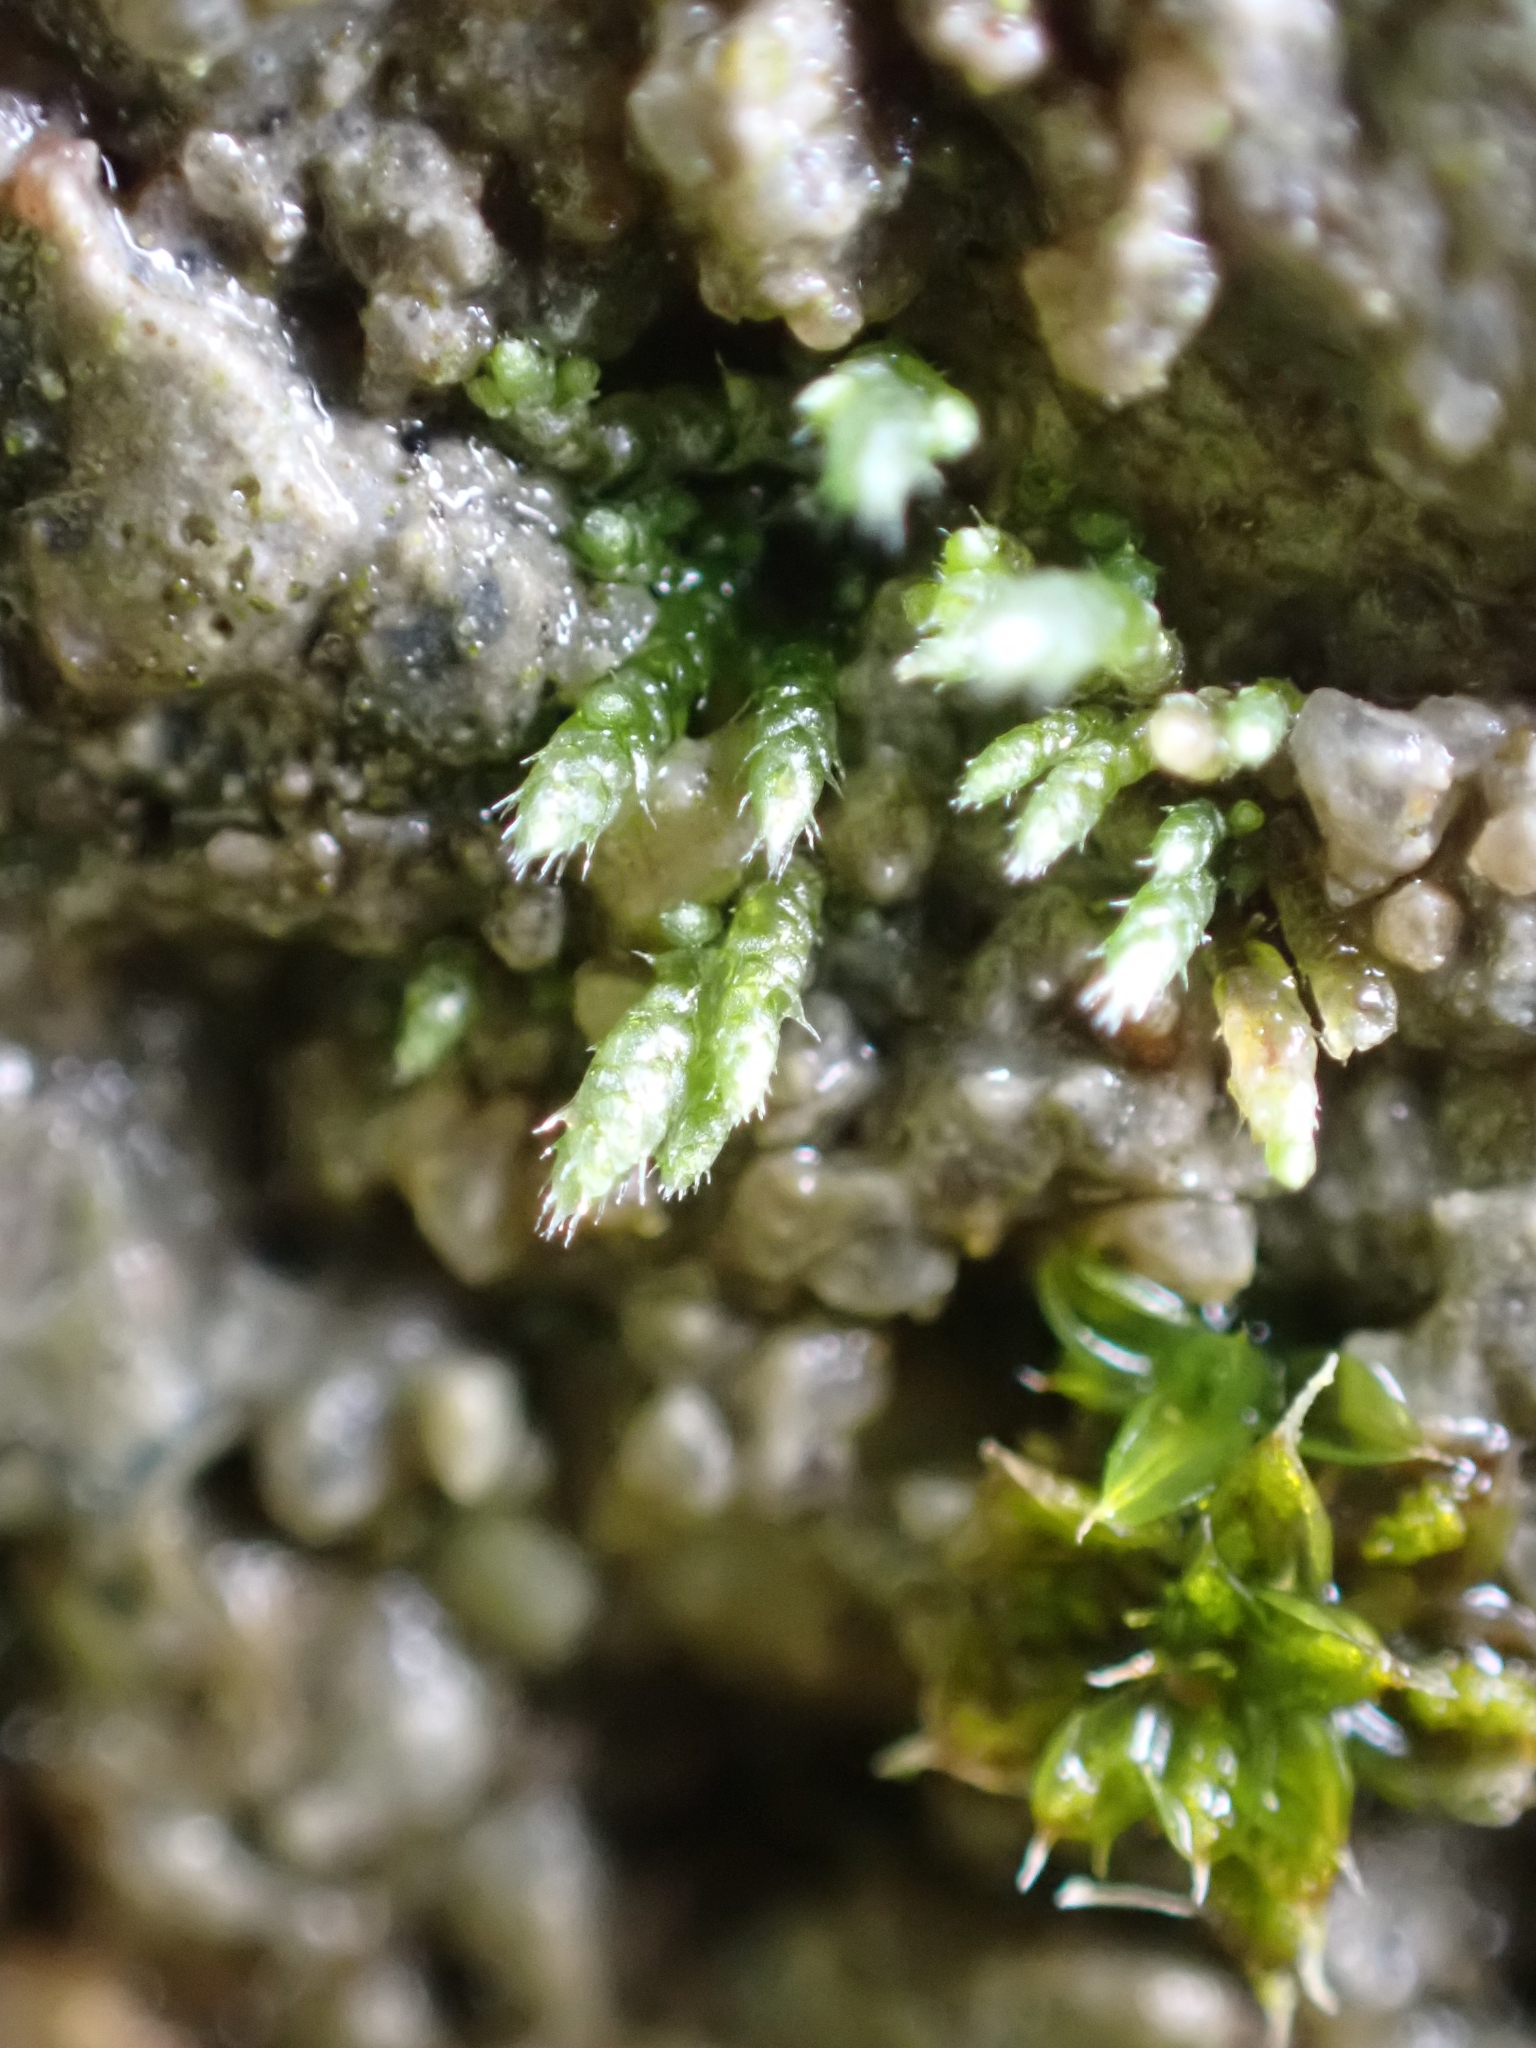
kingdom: Plantae
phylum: Bryophyta
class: Bryopsida
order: Bryales
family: Bryaceae
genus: Bryum
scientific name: Bryum argenteum
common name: Silver-moss
